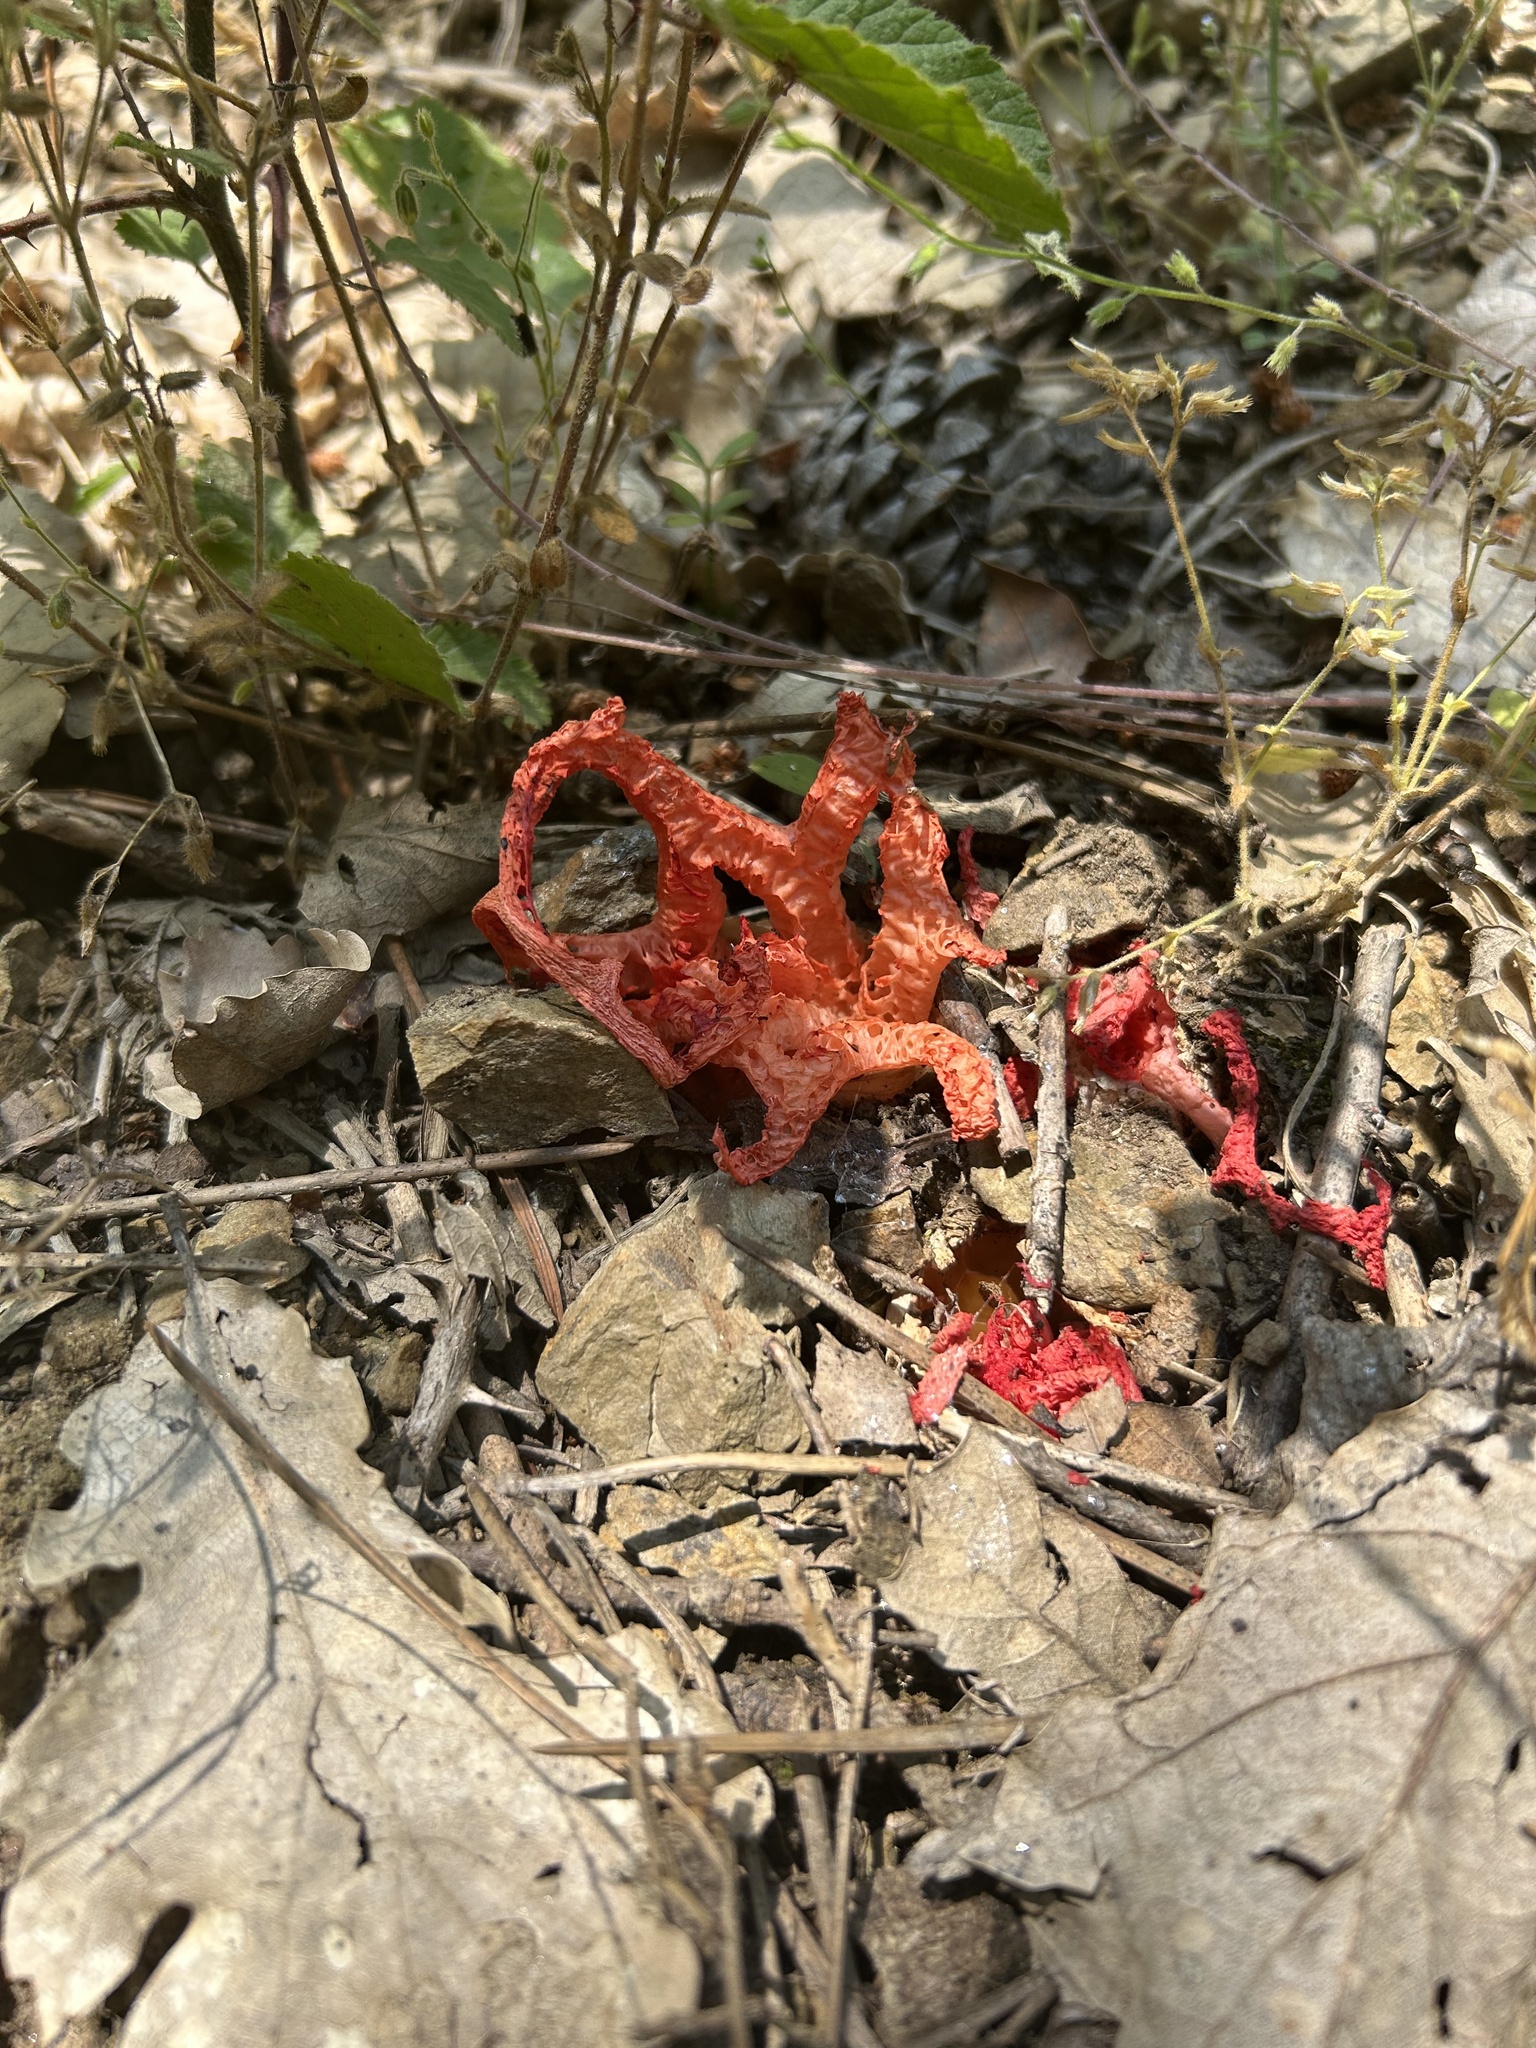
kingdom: Fungi
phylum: Basidiomycota
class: Agaricomycetes
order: Phallales
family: Phallaceae
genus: Clathrus
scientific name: Clathrus ruber
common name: Red cage
